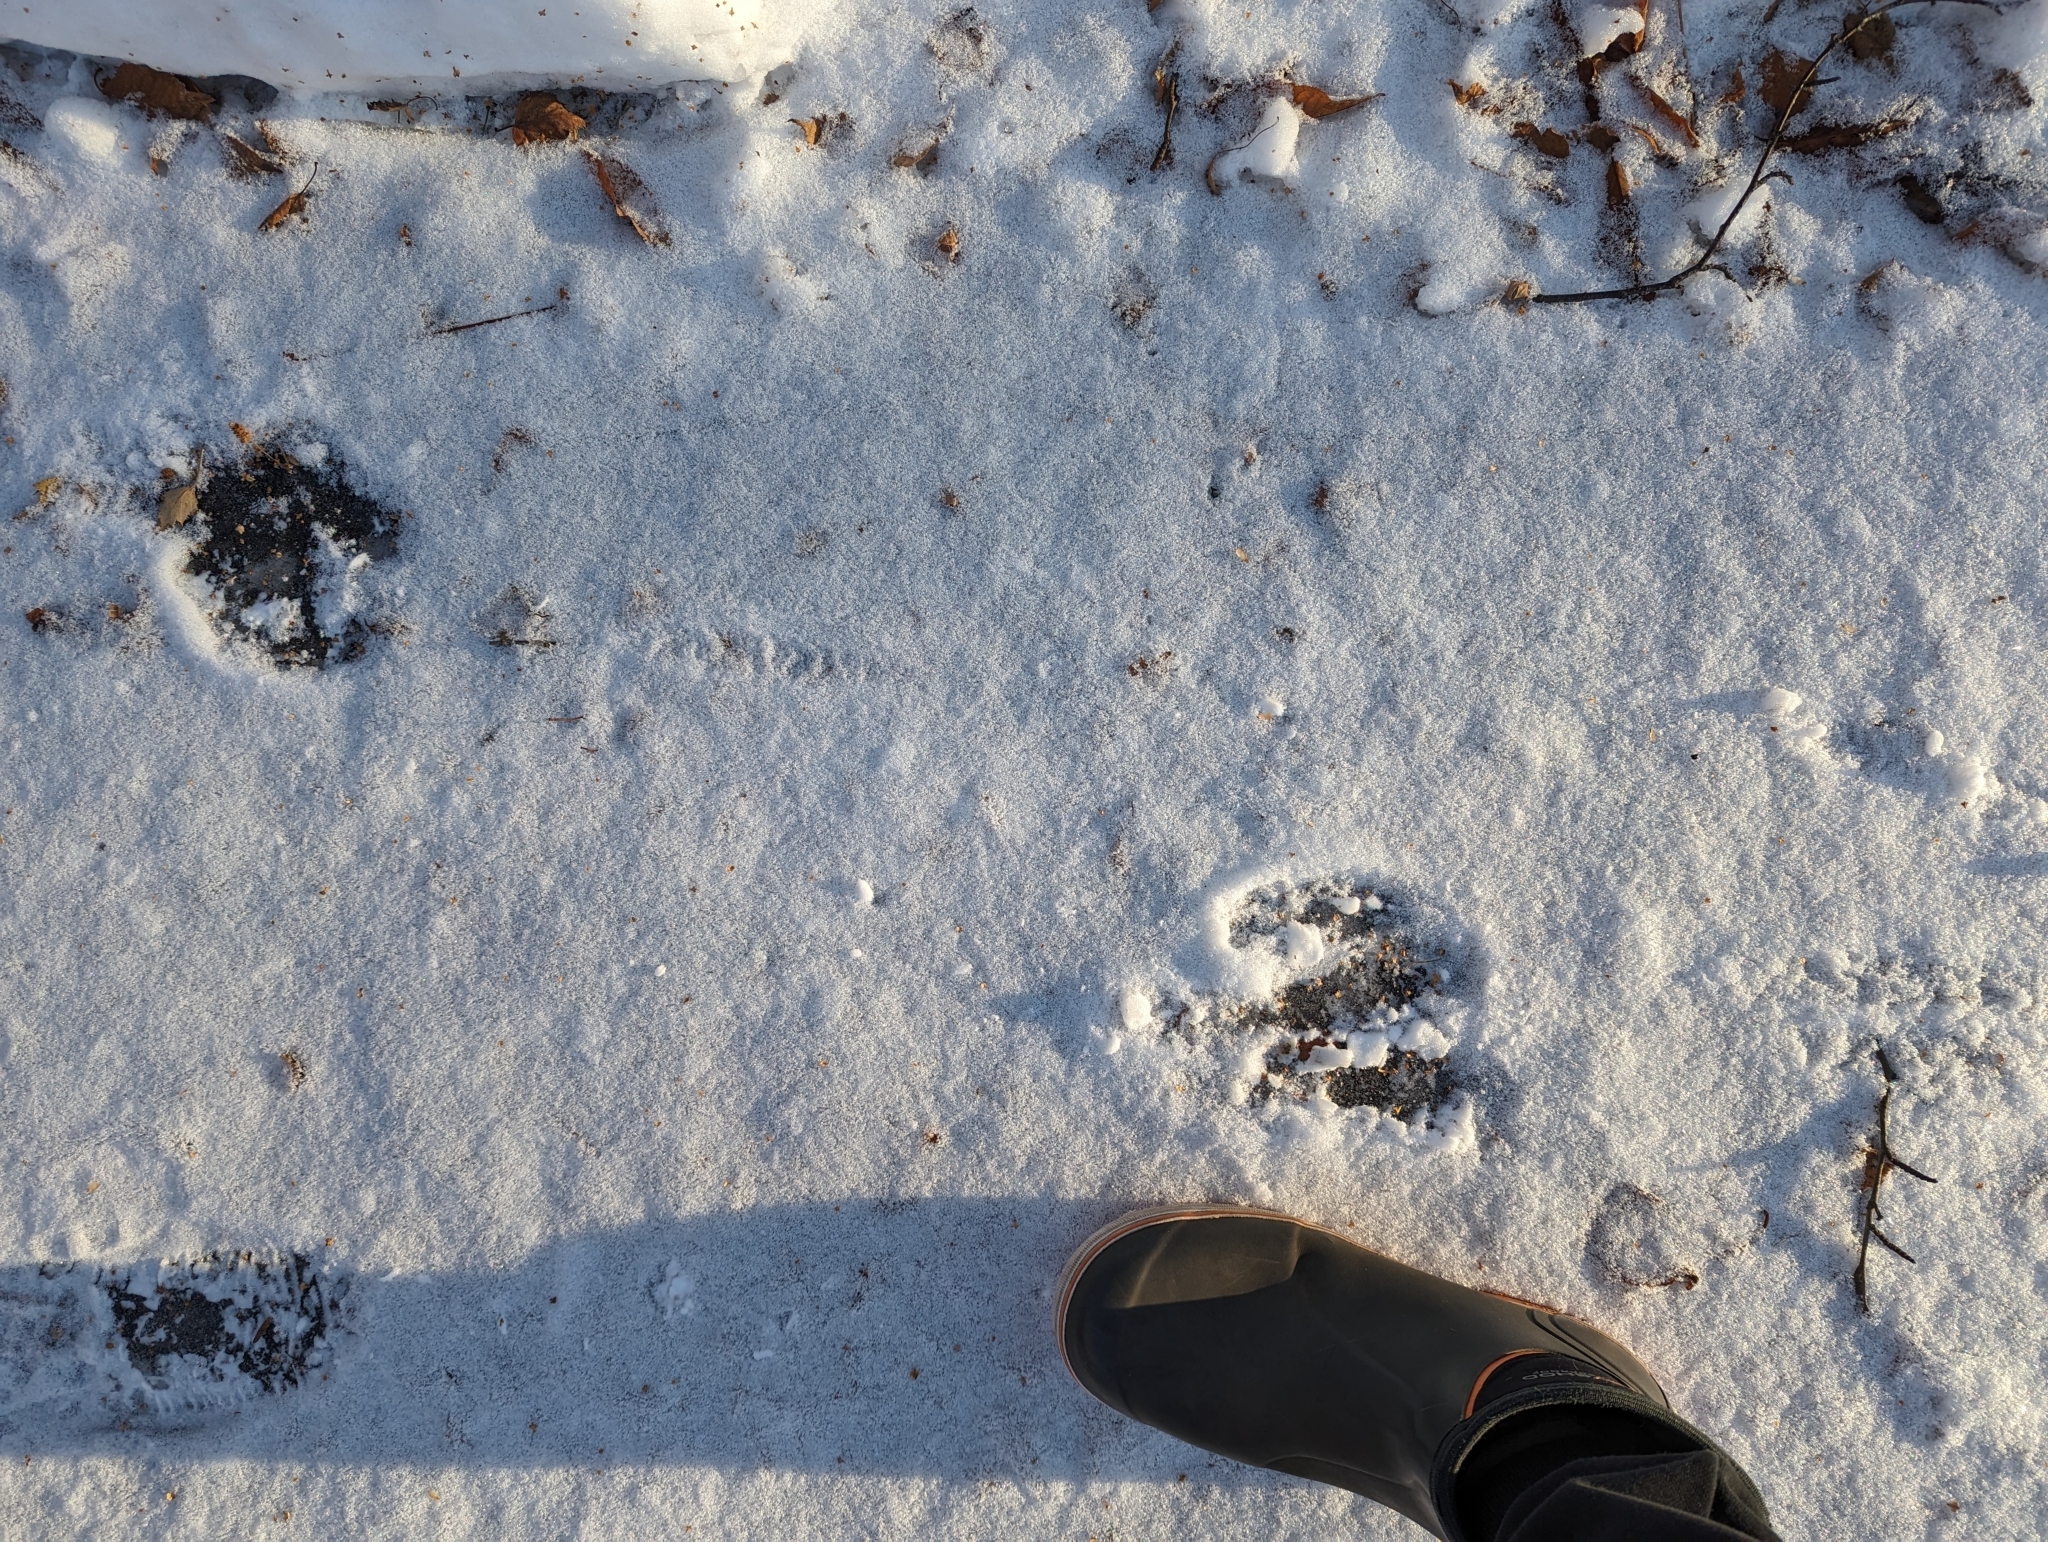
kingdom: Animalia
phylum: Chordata
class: Mammalia
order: Artiodactyla
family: Cervidae
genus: Alces
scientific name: Alces alces
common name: Moose
